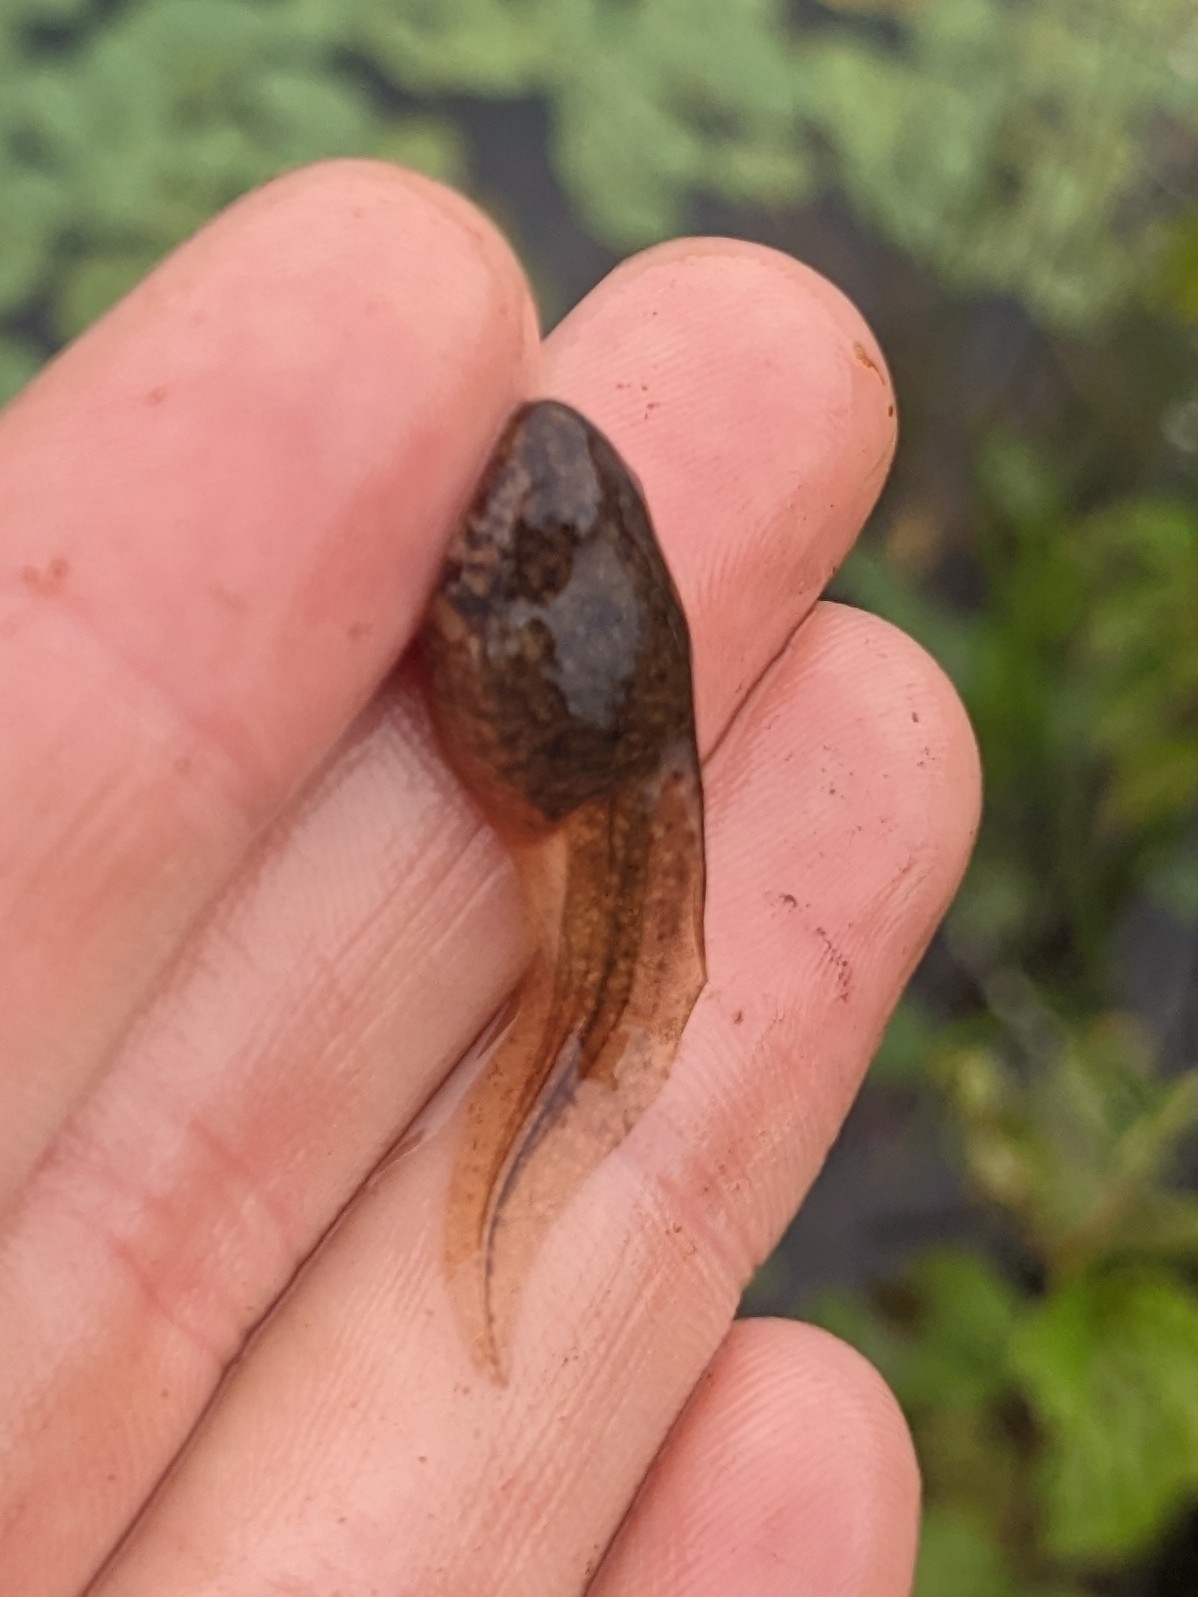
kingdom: Animalia
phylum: Chordata
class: Amphibia
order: Anura
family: Ranidae
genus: Lithobates
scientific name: Lithobates clamitans
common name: Green frog
